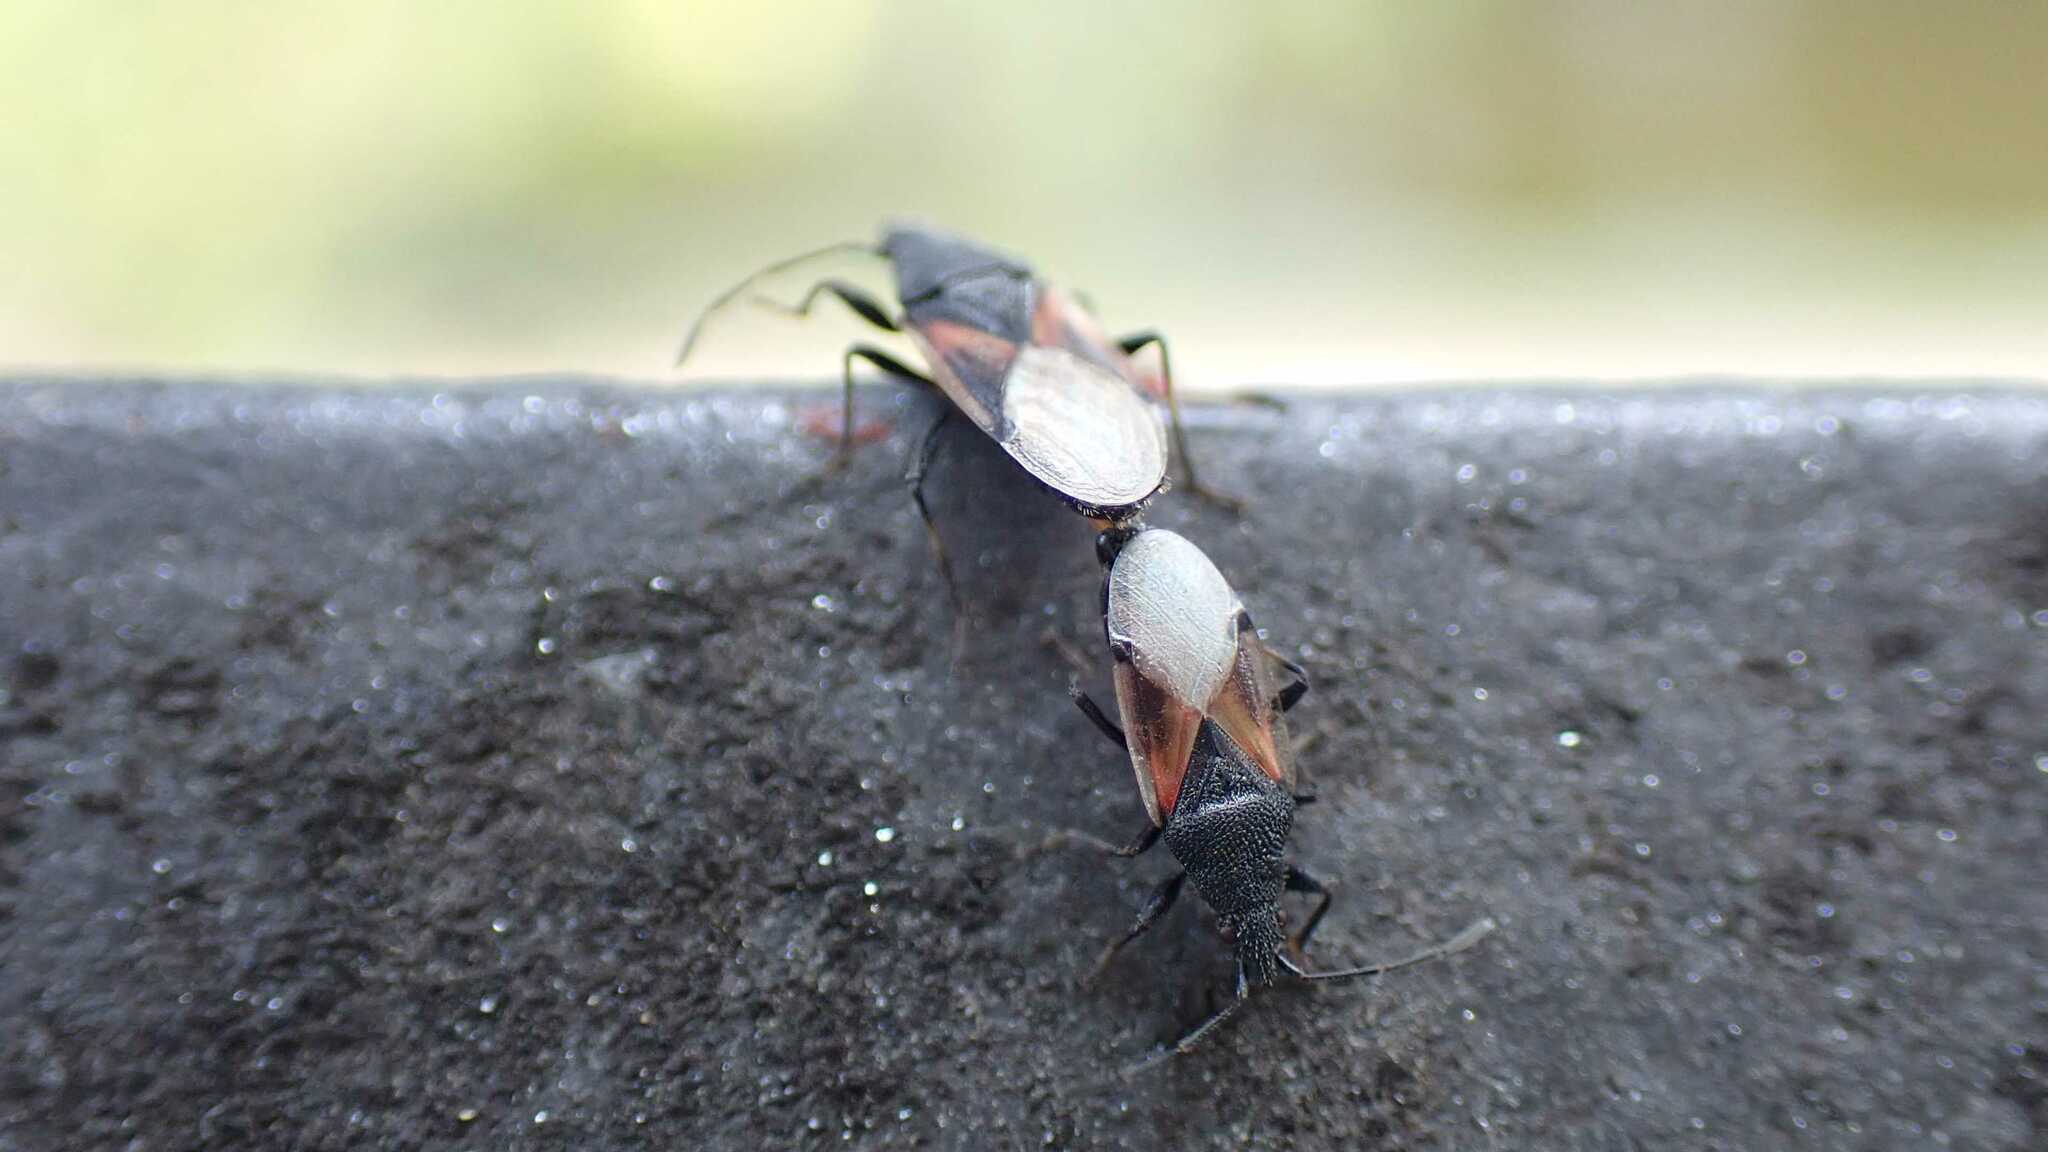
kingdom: Animalia
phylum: Arthropoda
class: Insecta
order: Hemiptera
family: Oxycarenidae
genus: Oxycarenus
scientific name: Oxycarenus lavaterae
